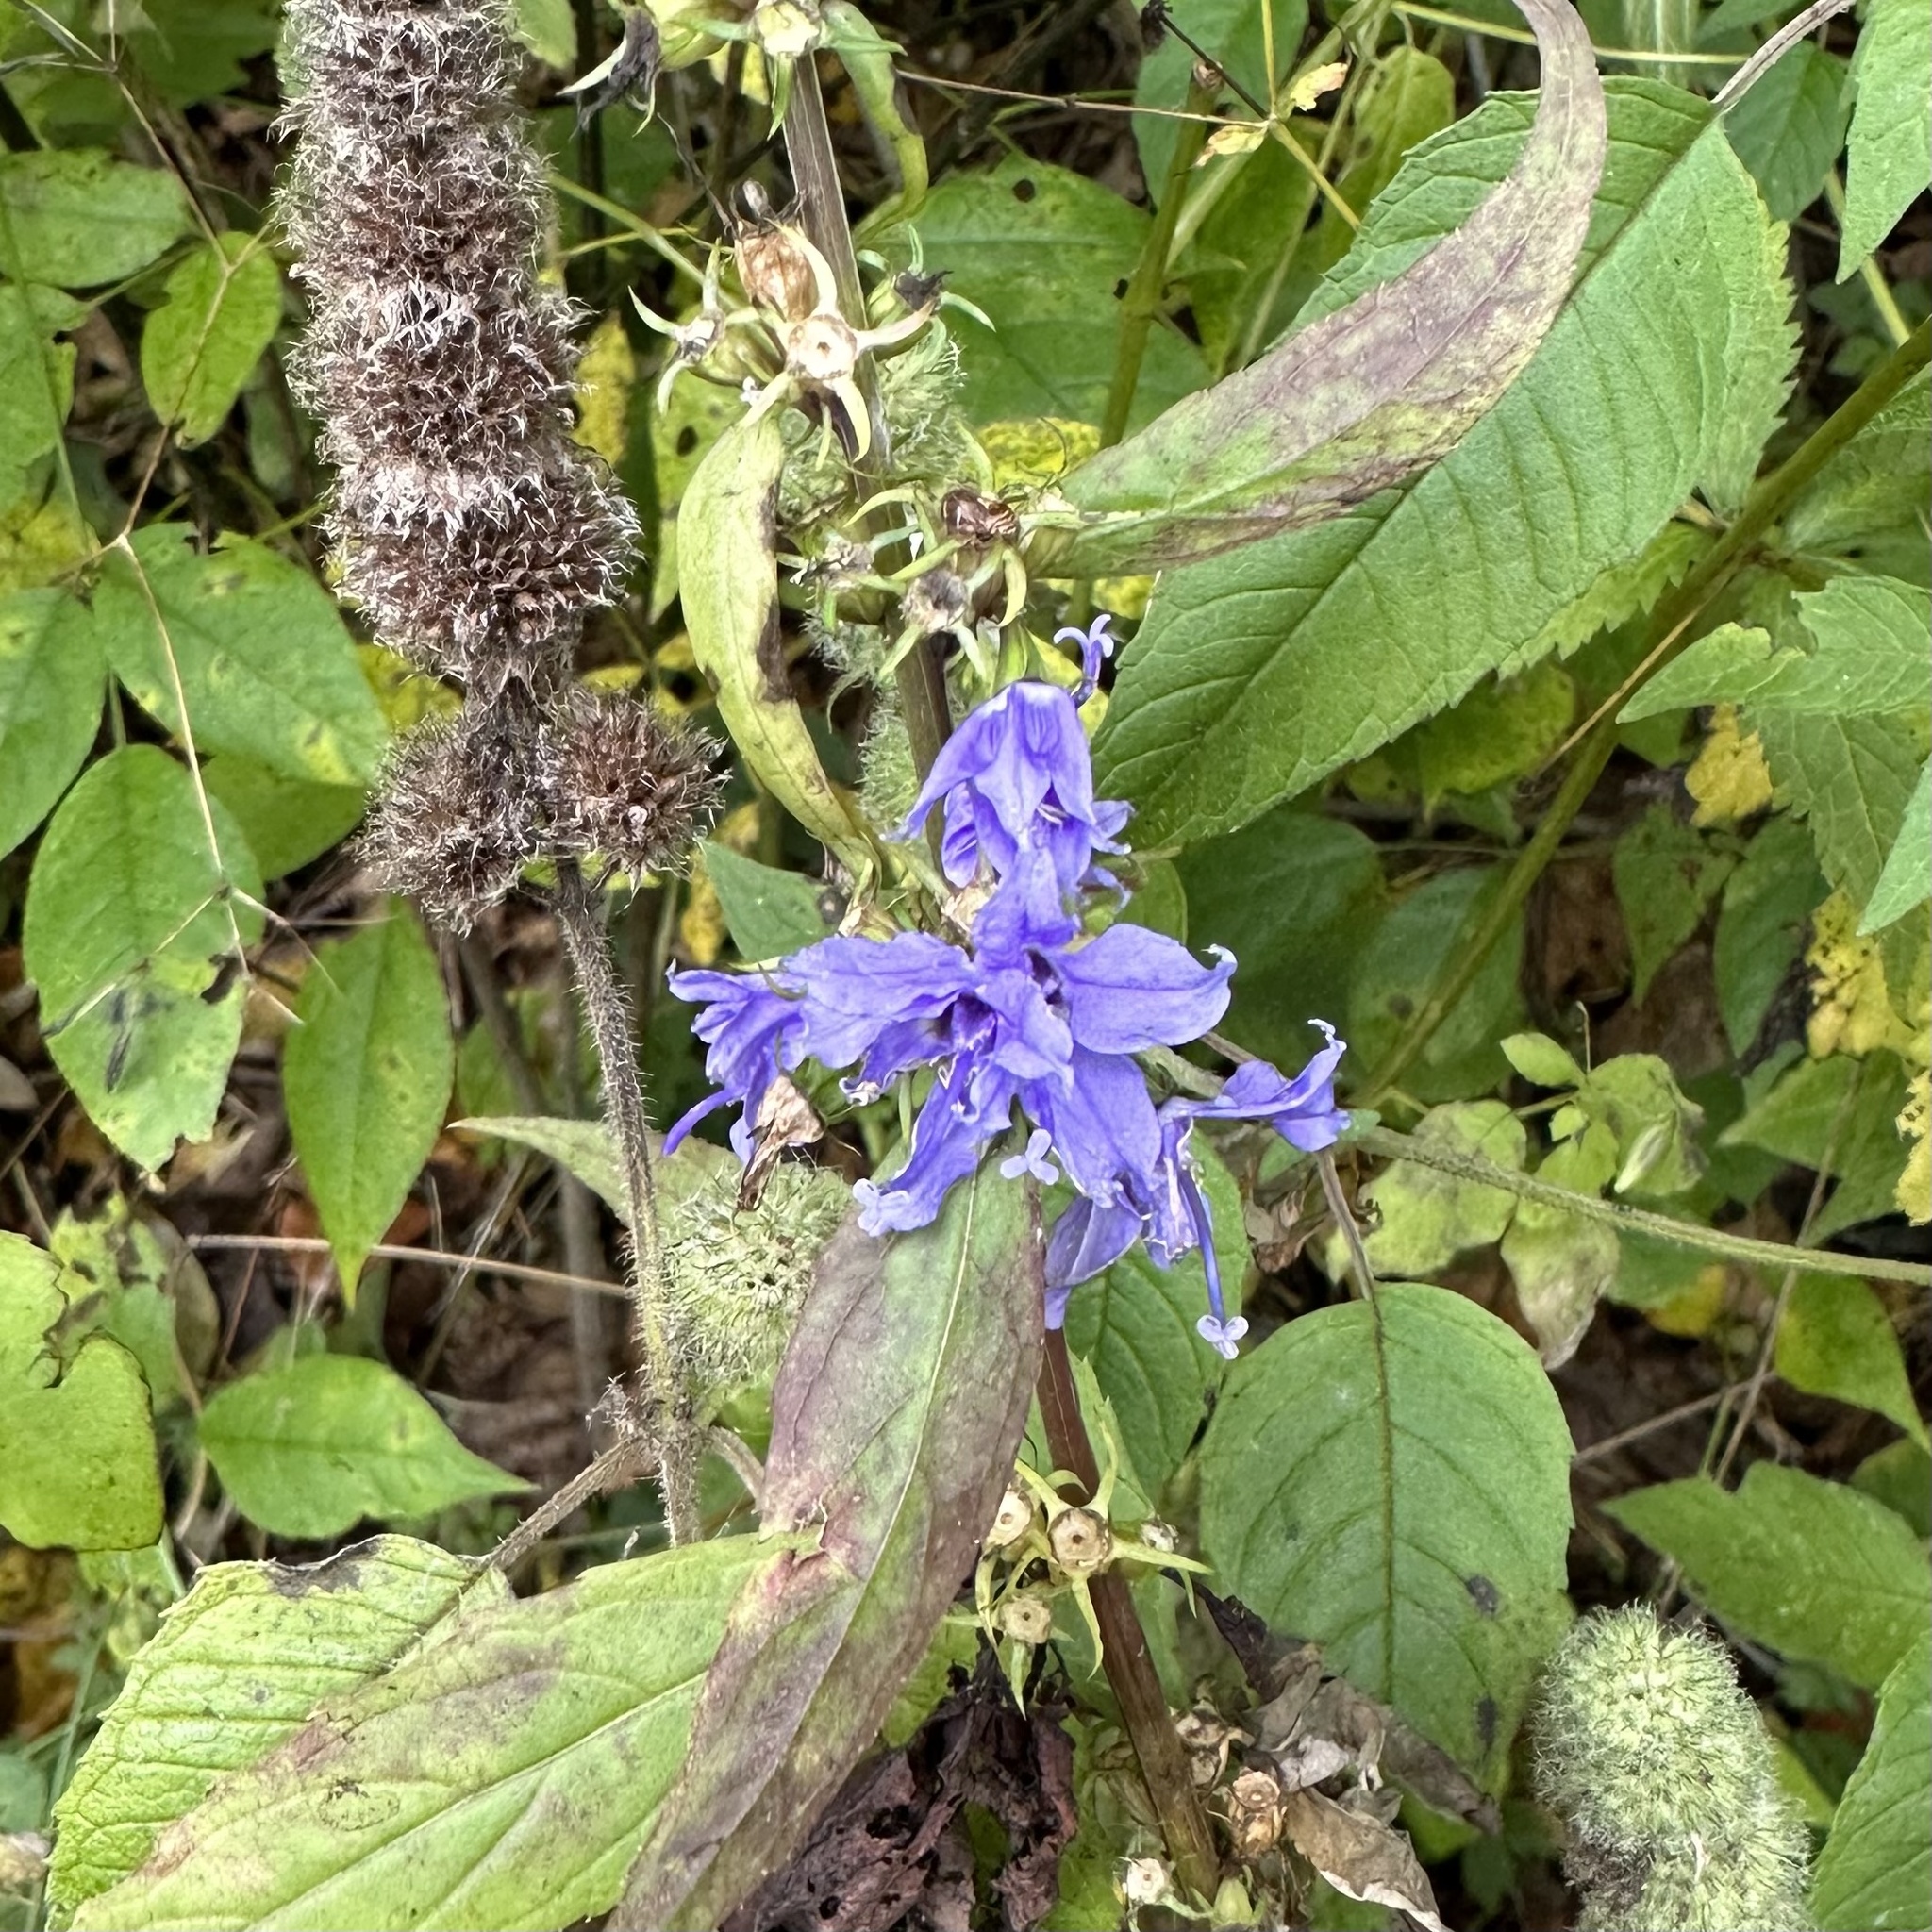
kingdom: Plantae
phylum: Tracheophyta
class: Magnoliopsida
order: Asterales
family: Campanulaceae
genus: Campanulastrum
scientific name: Campanulastrum americanum
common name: American bellflower
